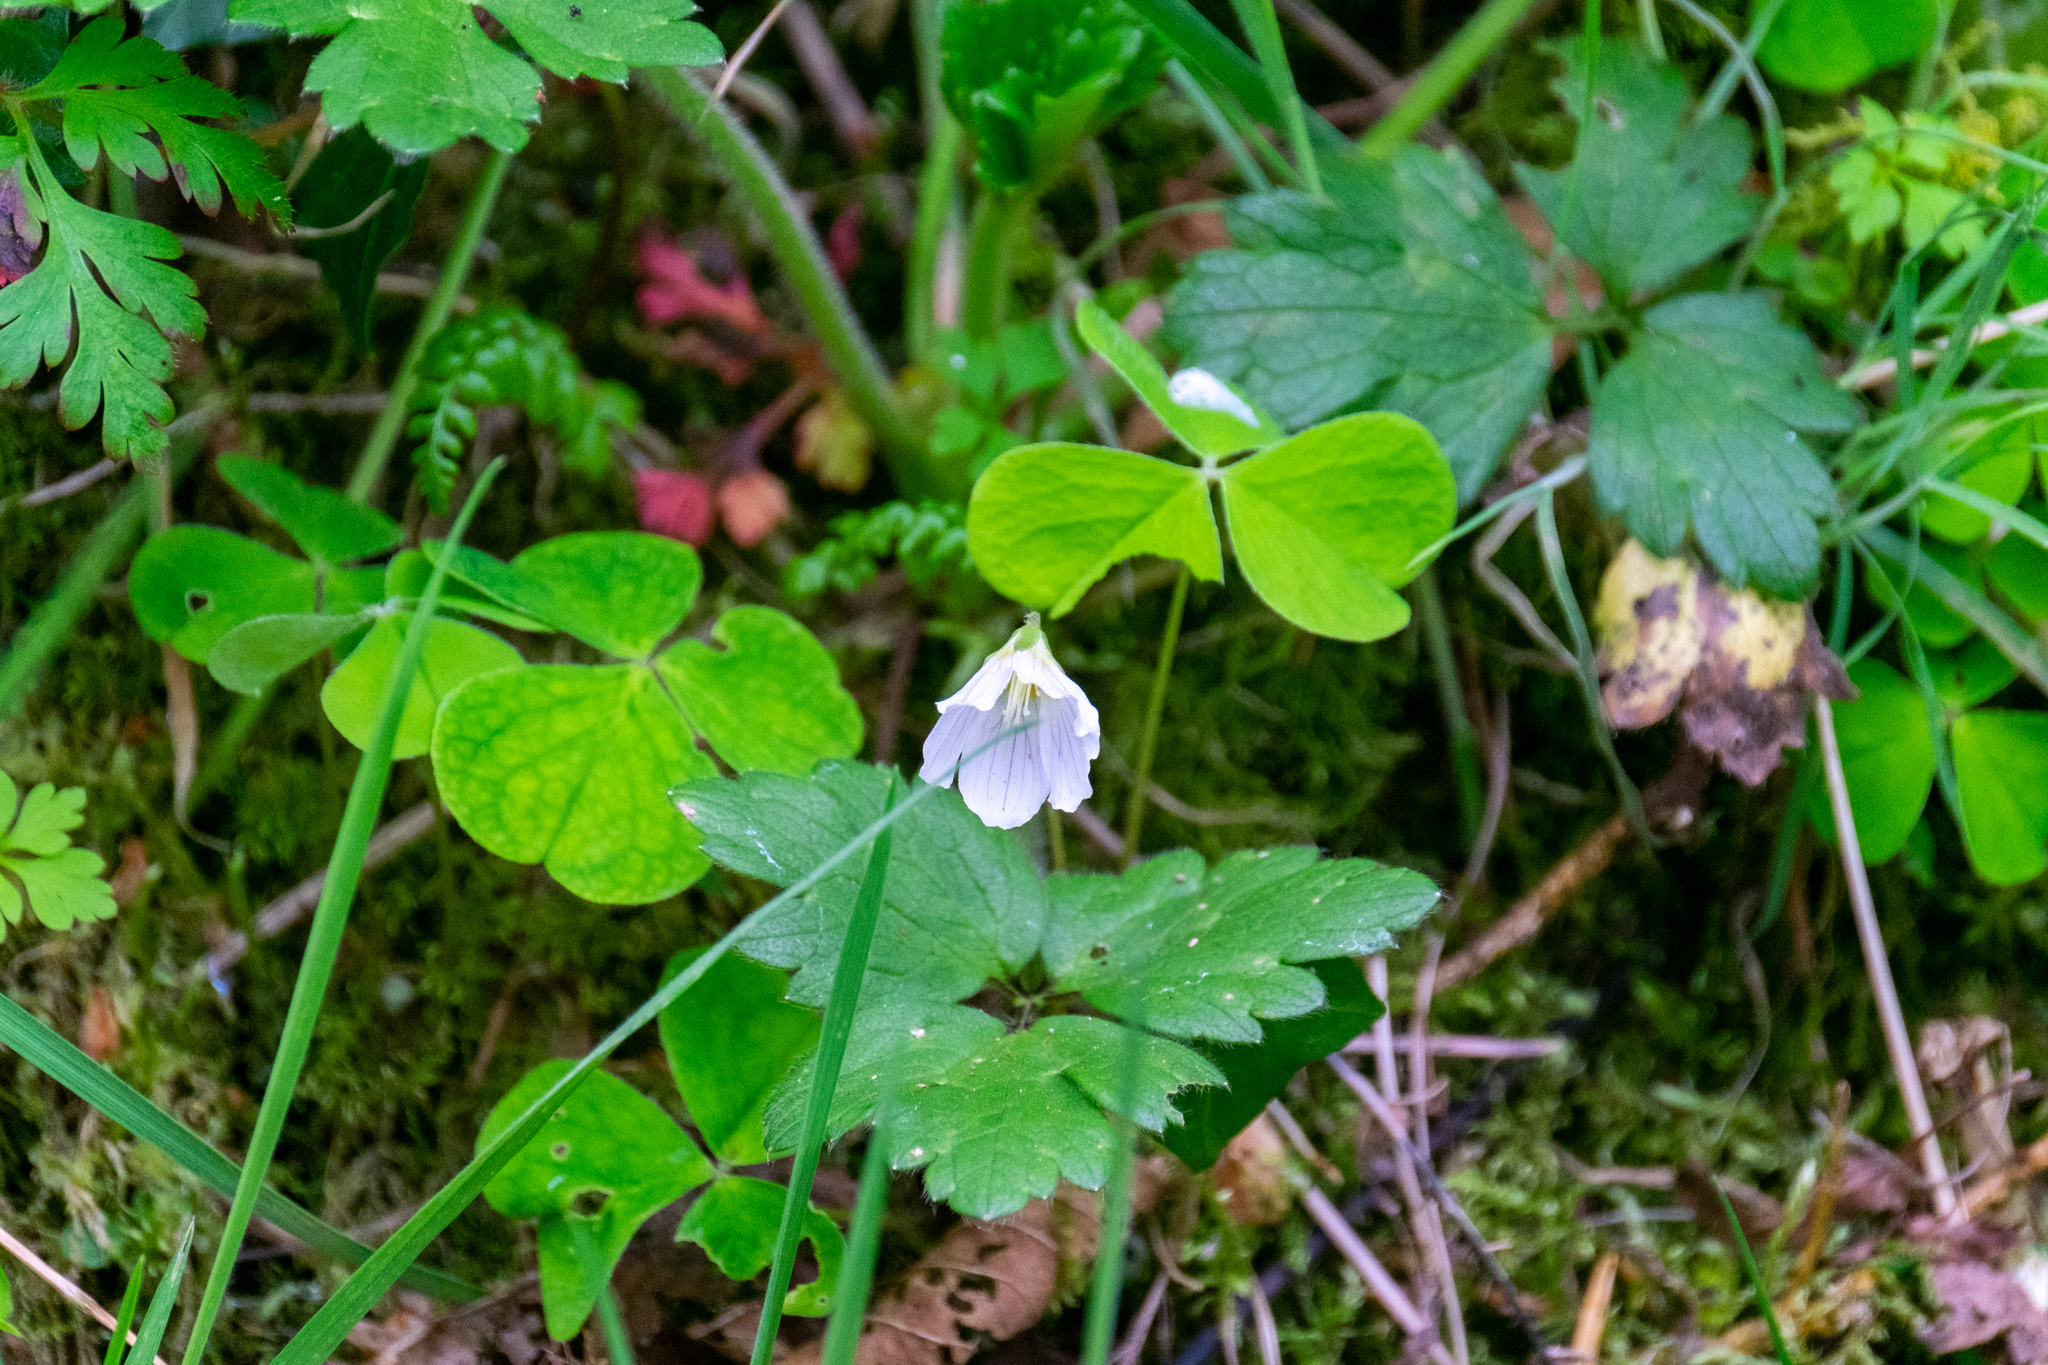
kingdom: Plantae
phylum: Tracheophyta
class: Magnoliopsida
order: Oxalidales
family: Oxalidaceae
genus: Oxalis
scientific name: Oxalis acetosella
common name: Wood-sorrel
